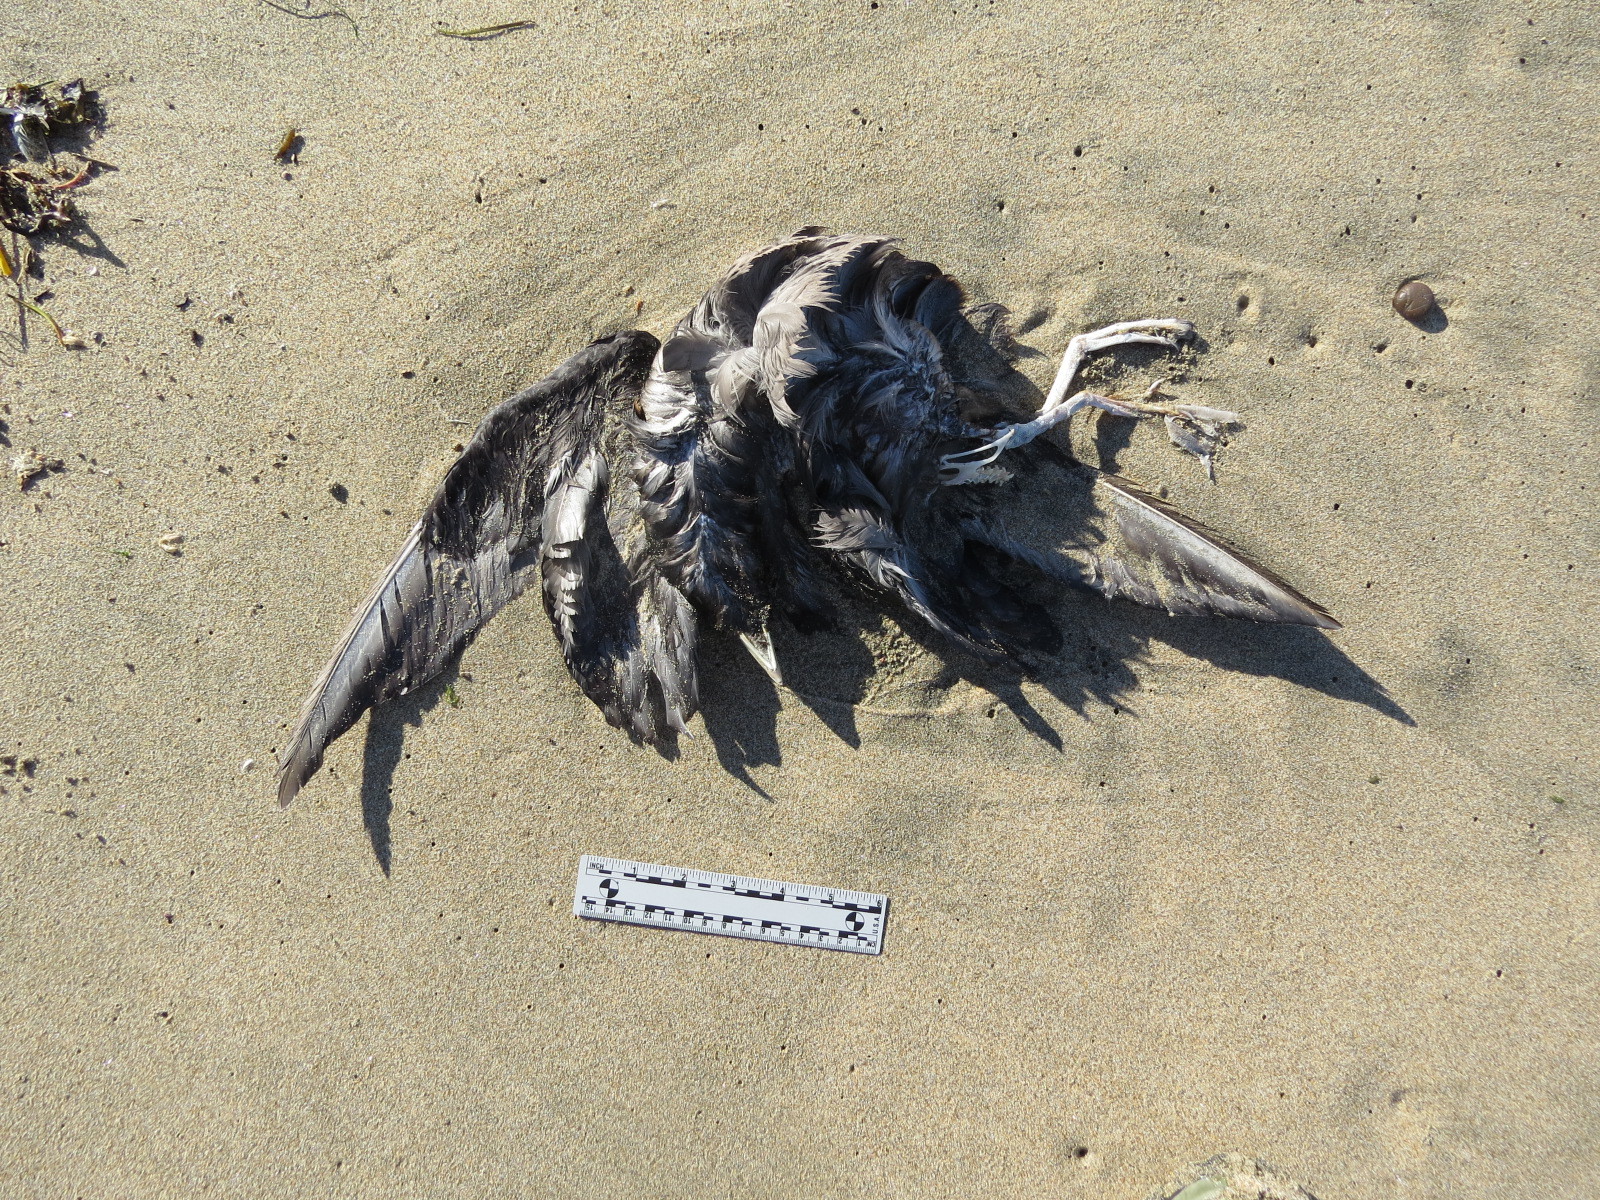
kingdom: Animalia
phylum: Chordata
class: Aves
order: Procellariiformes
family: Procellariidae
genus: Fulmarus
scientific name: Fulmarus glacialis
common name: Northern fulmar
